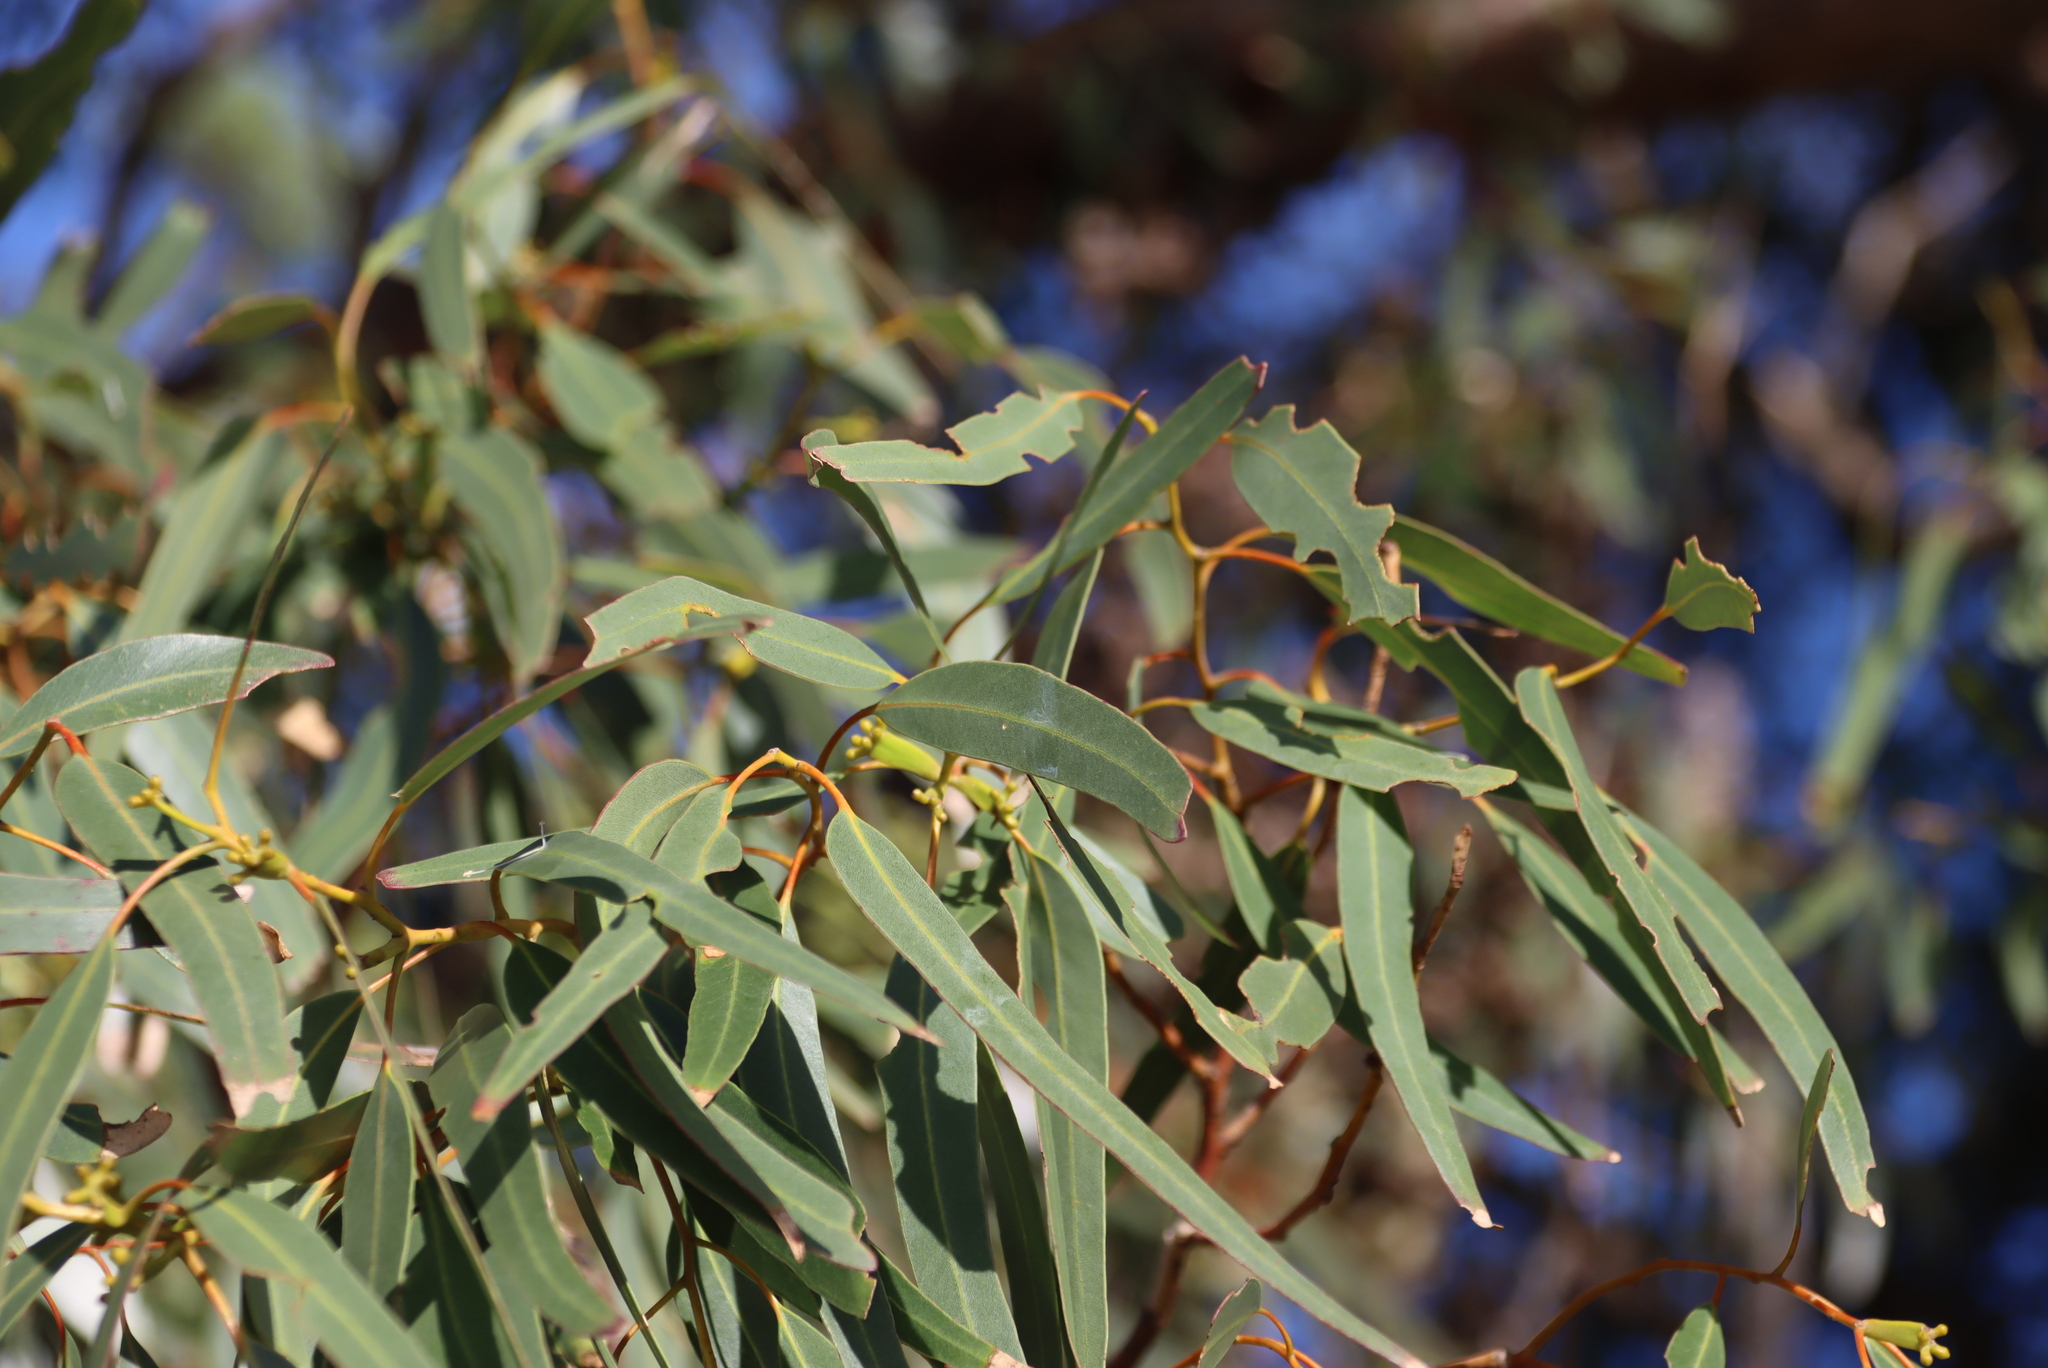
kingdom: Animalia
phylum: Arthropoda
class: Insecta
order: Coleoptera
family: Curculionidae
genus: Gonipterus
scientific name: Gonipterus
